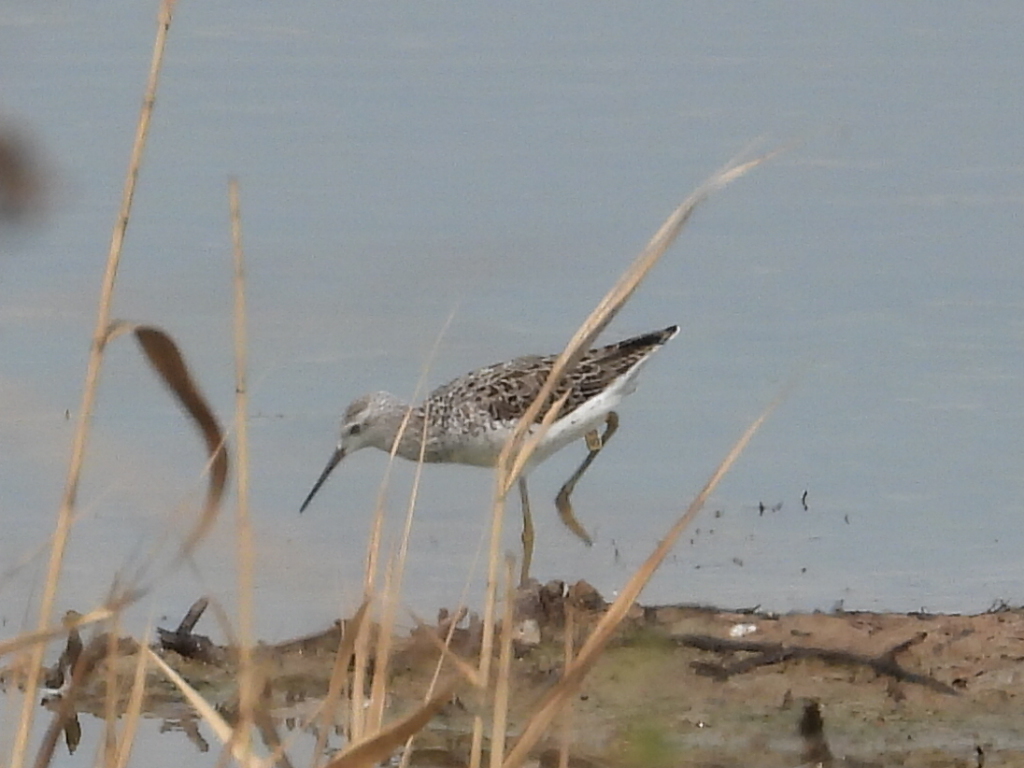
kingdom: Animalia
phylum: Chordata
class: Aves
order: Charadriiformes
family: Scolopacidae
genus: Tringa
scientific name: Tringa stagnatilis
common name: Marsh sandpiper
